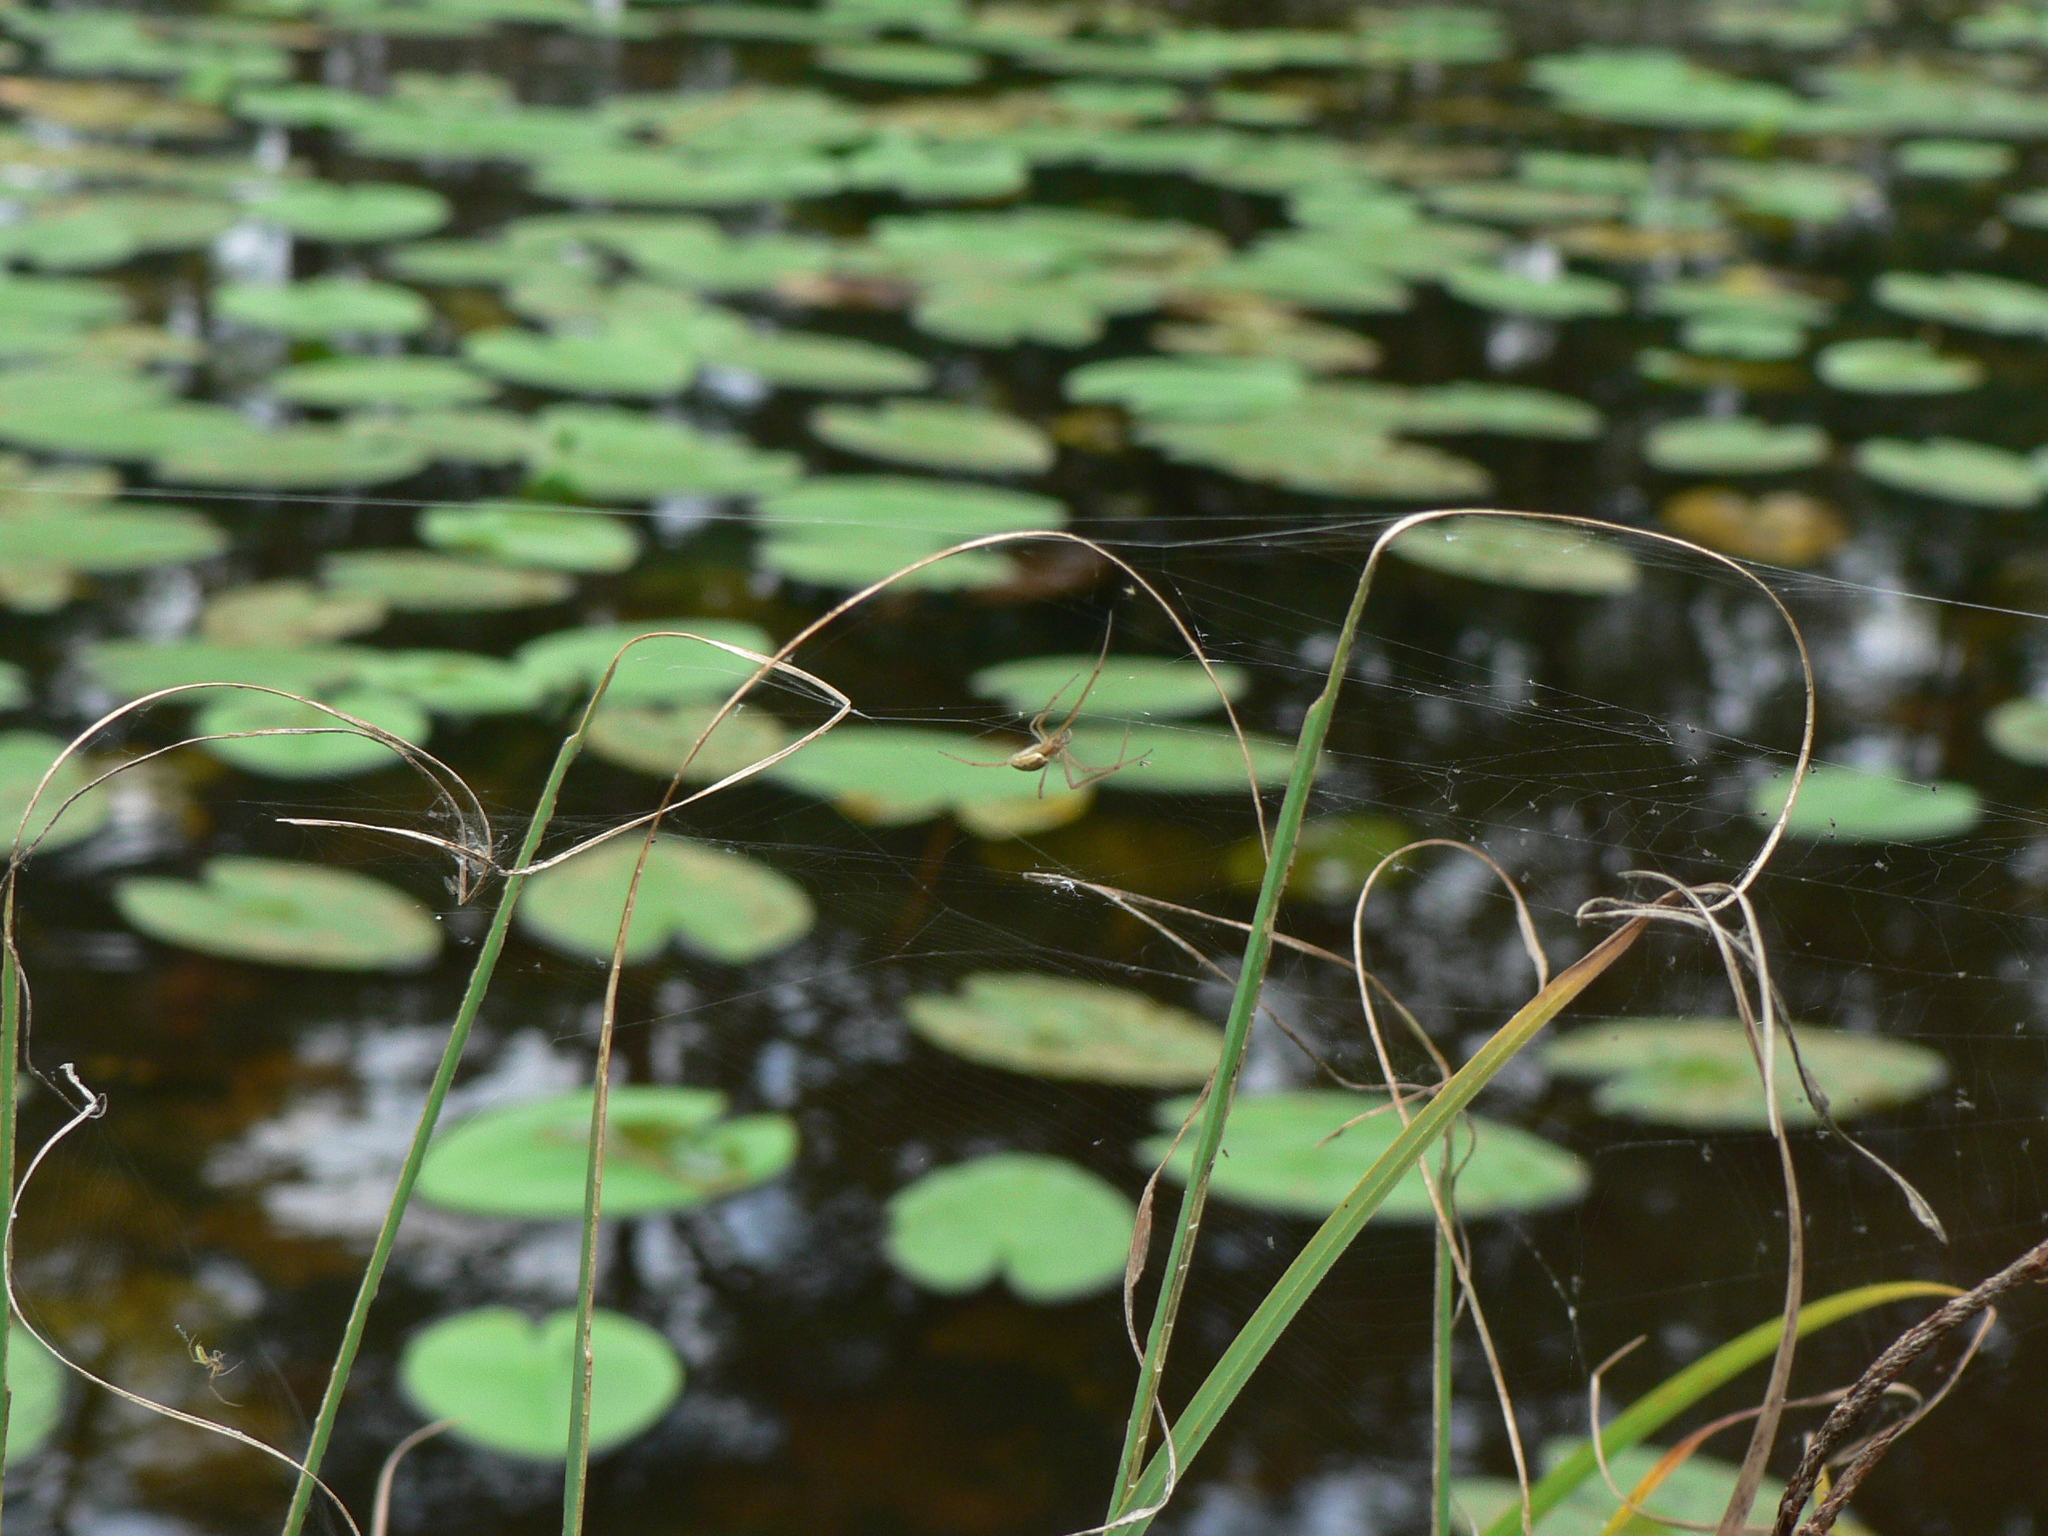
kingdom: Animalia
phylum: Arthropoda
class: Arachnida
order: Araneae
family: Tetragnathidae
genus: Tetragnatha
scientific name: Tetragnatha
